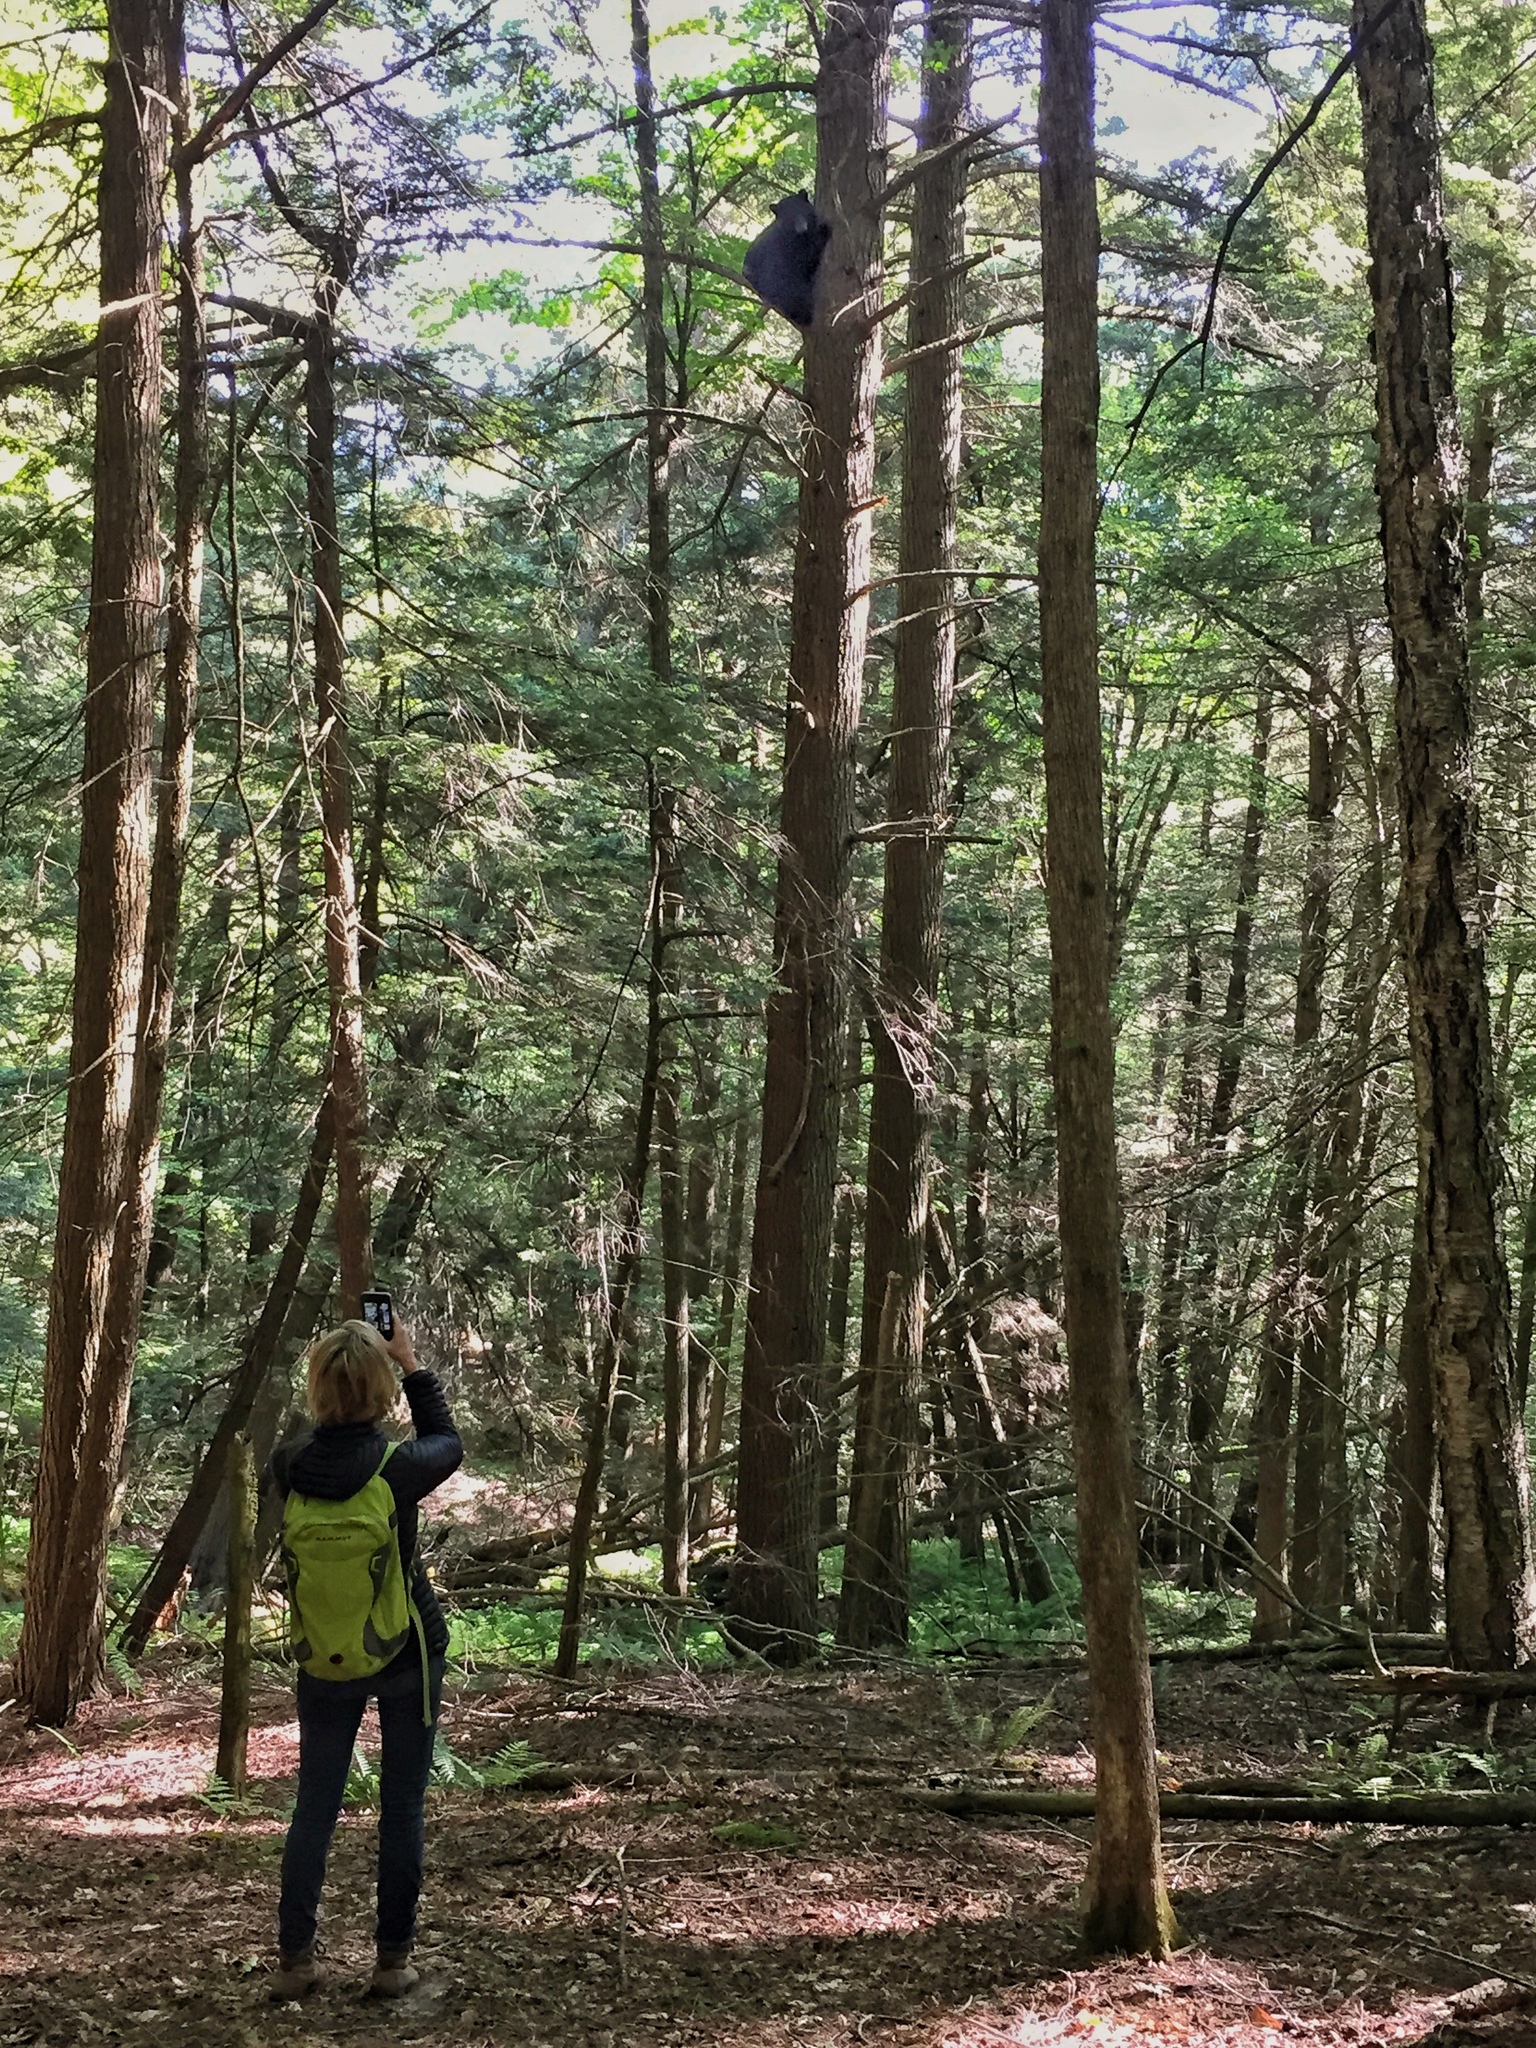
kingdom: Animalia
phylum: Chordata
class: Mammalia
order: Carnivora
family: Ursidae
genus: Ursus
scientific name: Ursus americanus
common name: American black bear
